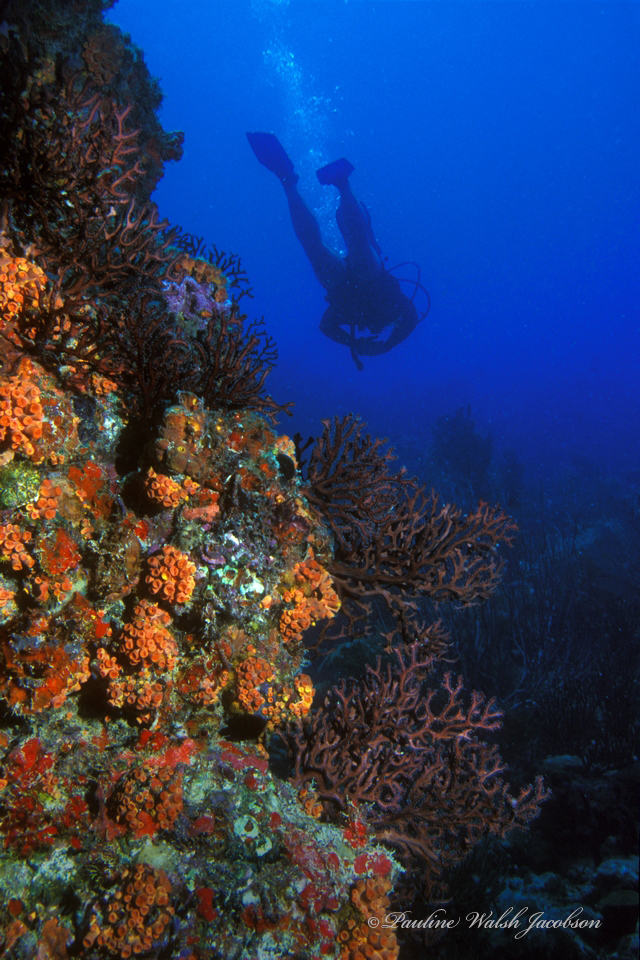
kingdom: Animalia
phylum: Cnidaria
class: Anthozoa
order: Malacalcyonacea
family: Melithaeidae
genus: Iciligorgia
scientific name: Iciligorgia schrammi
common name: Black sea fan
